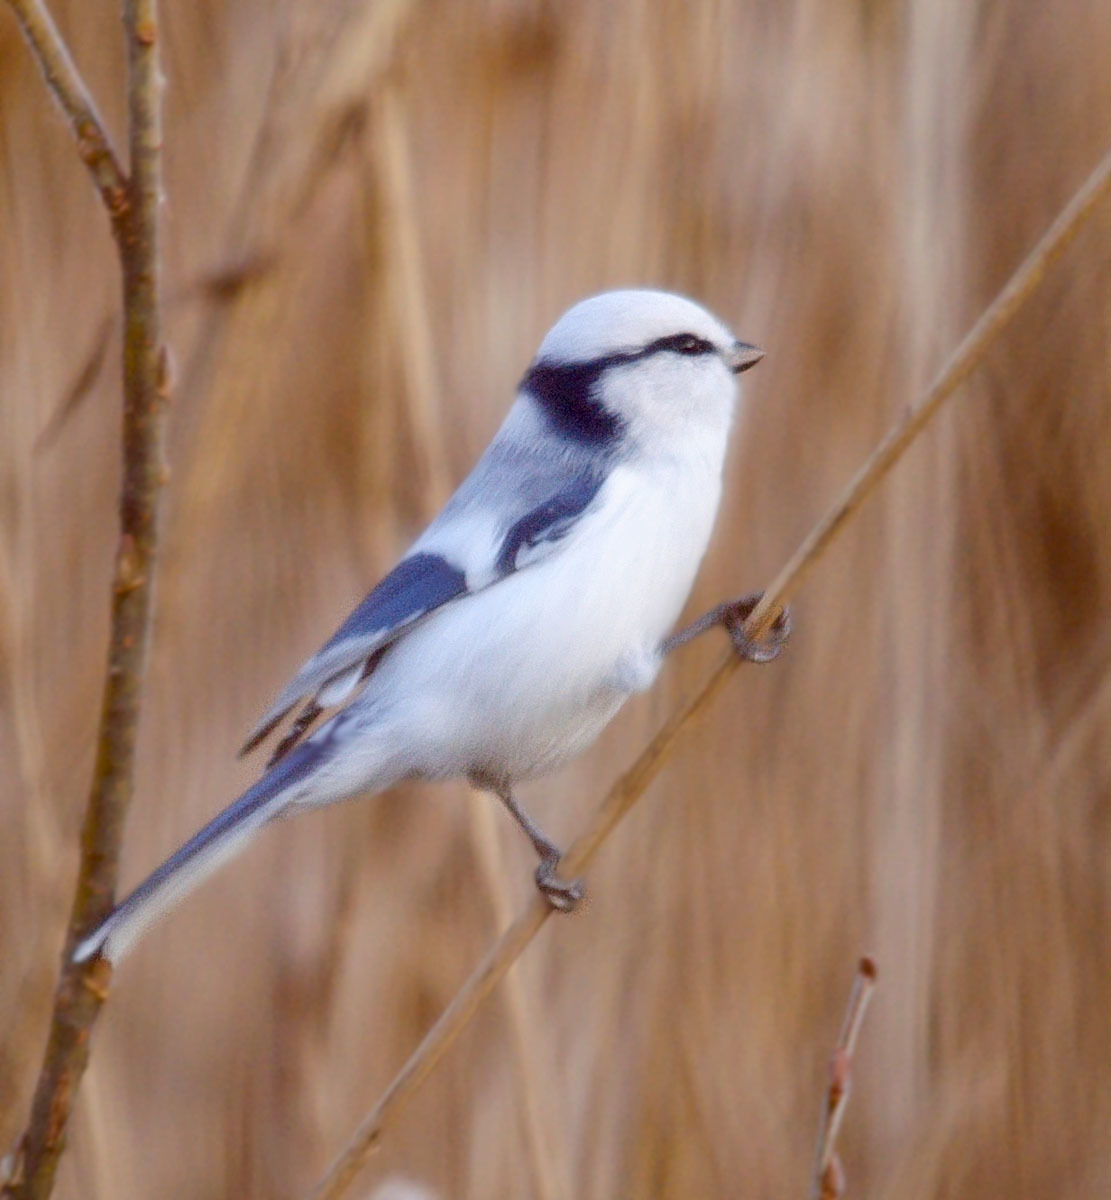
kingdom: Animalia
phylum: Chordata
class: Aves
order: Passeriformes
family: Paridae
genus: Cyanistes
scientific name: Cyanistes cyanus
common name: Azure tit
